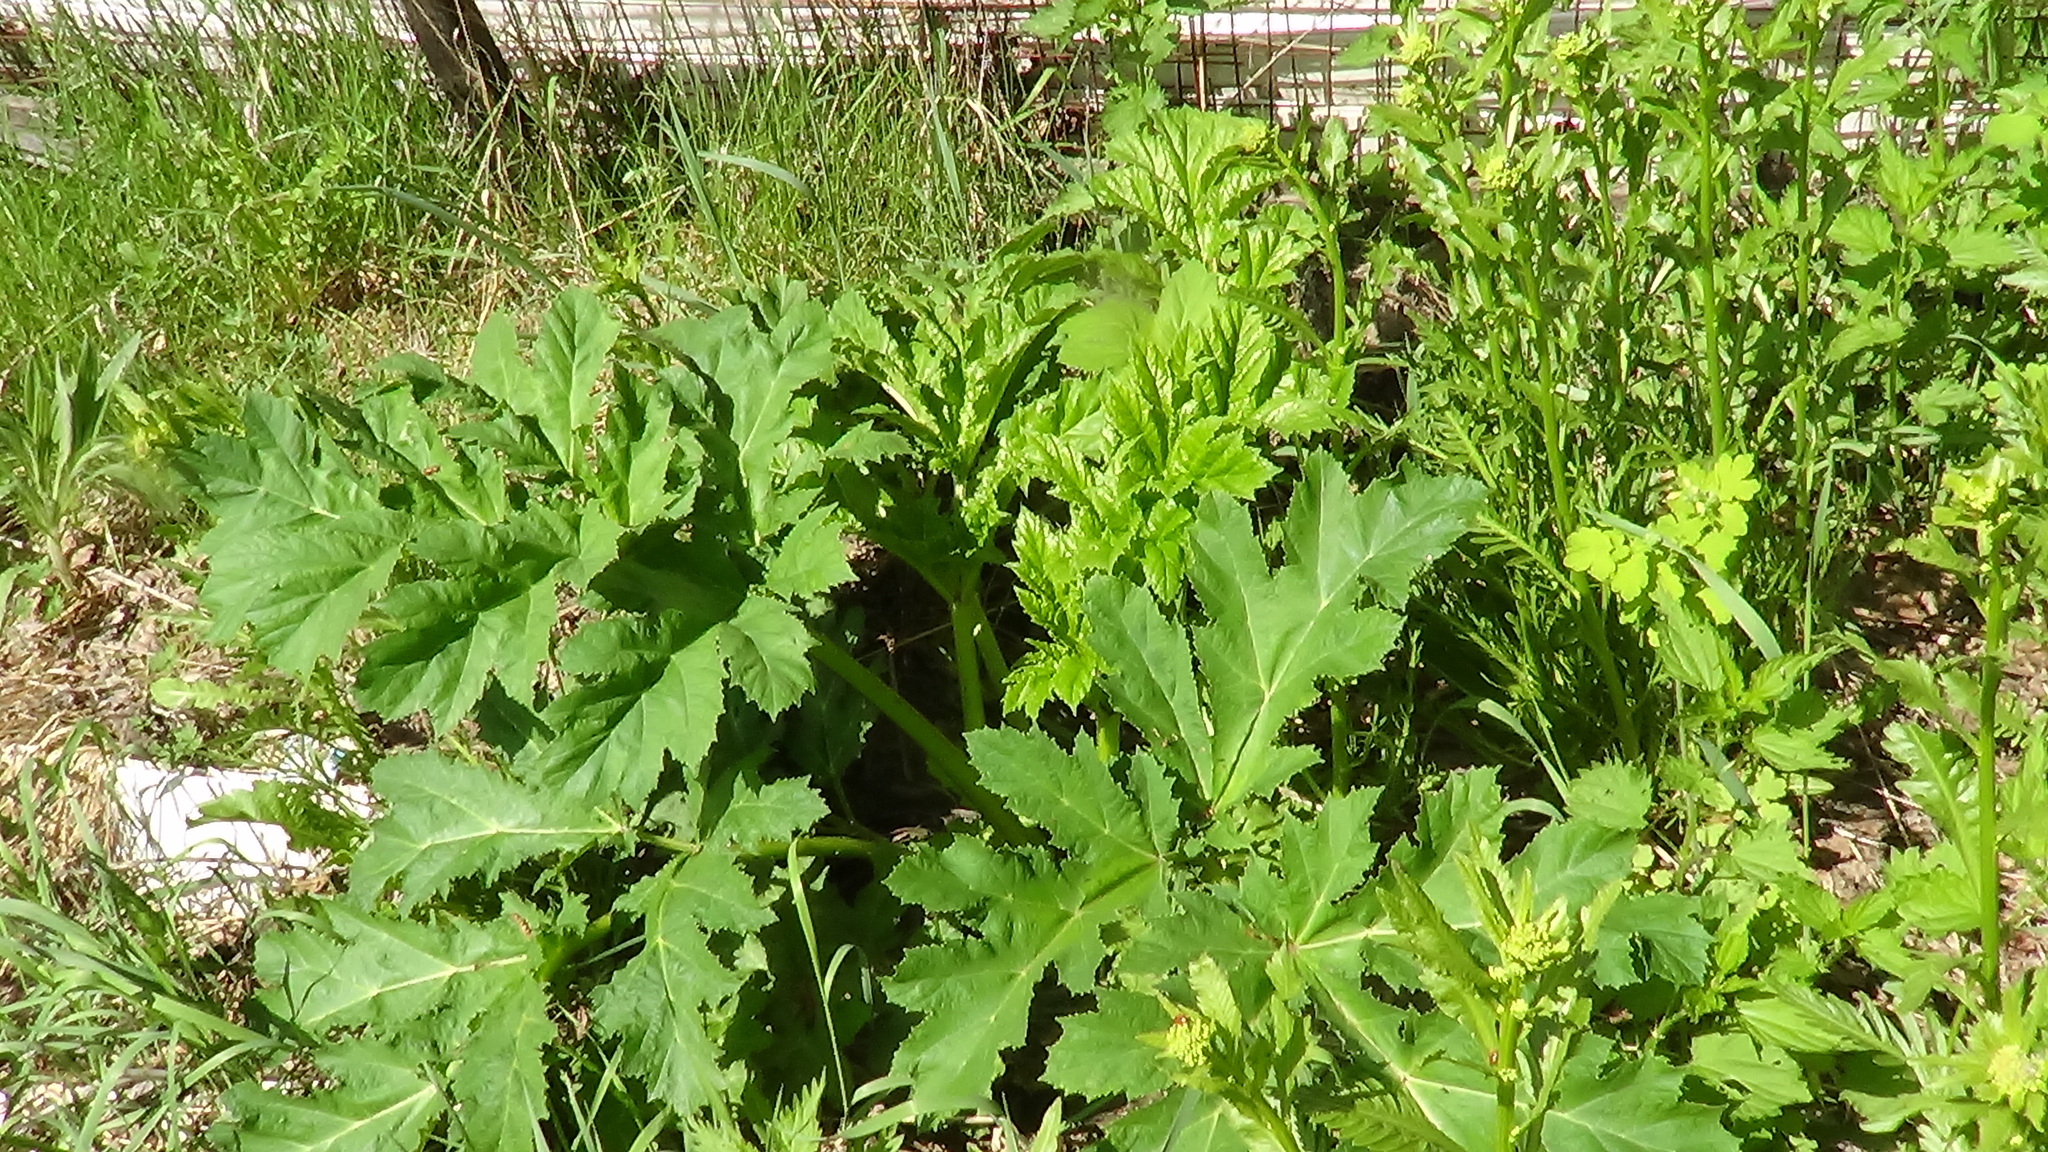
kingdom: Plantae
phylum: Tracheophyta
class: Magnoliopsida
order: Apiales
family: Apiaceae
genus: Heracleum
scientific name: Heracleum sosnowskyi
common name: Sosnowsky's hogweed
